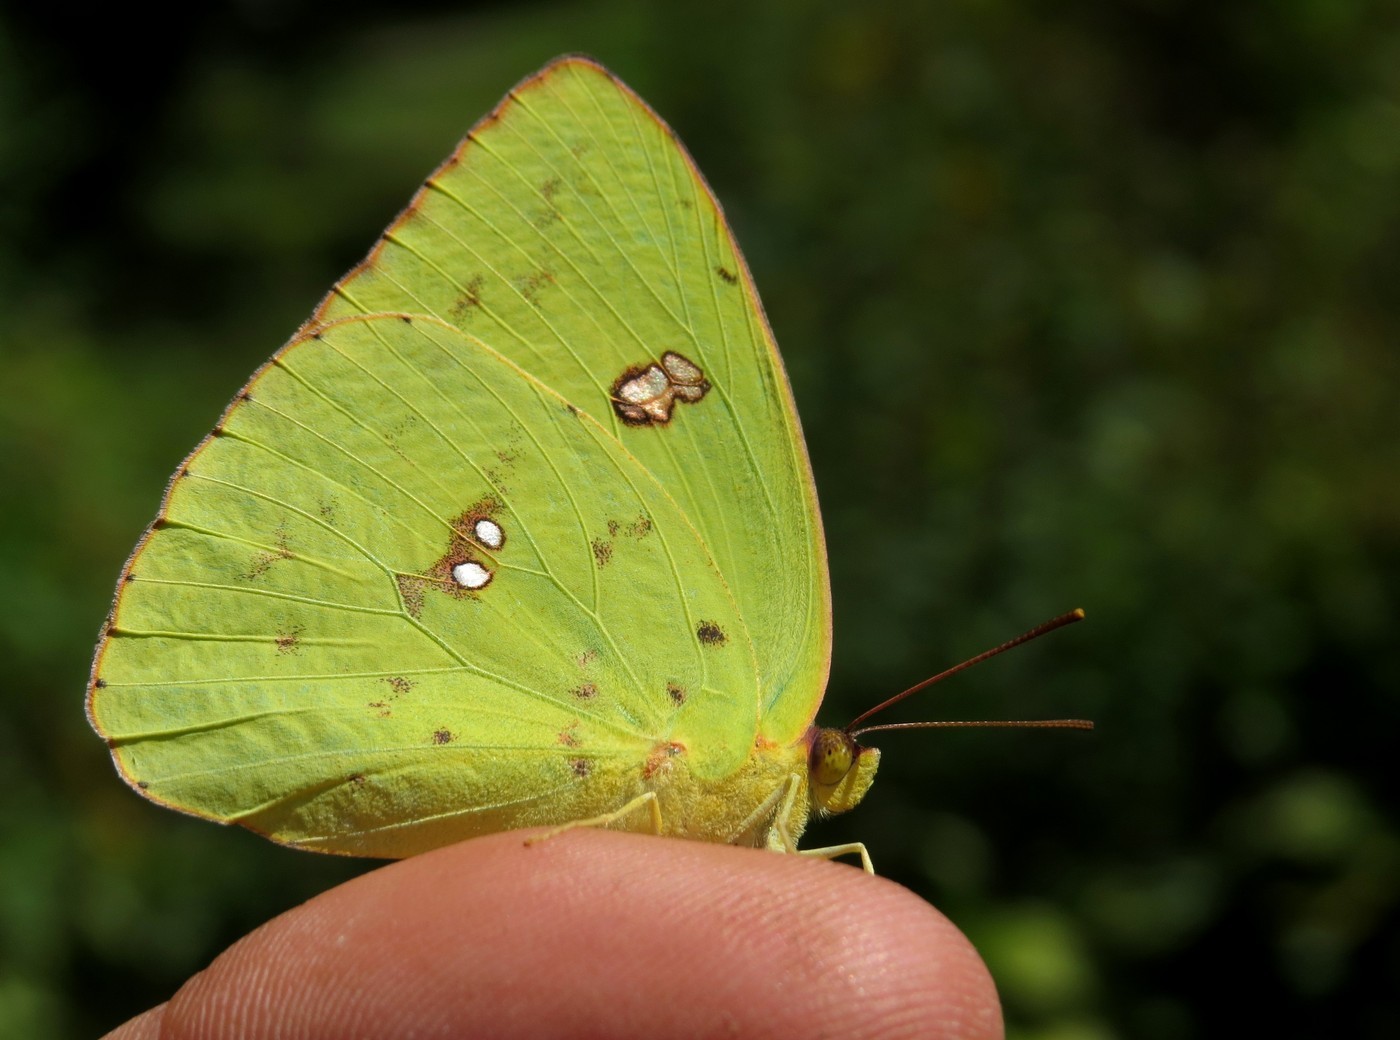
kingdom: Animalia
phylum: Arthropoda
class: Insecta
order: Lepidoptera
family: Pieridae
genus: Phoebis
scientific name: Phoebis sennae
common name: Cloudless sulphur
